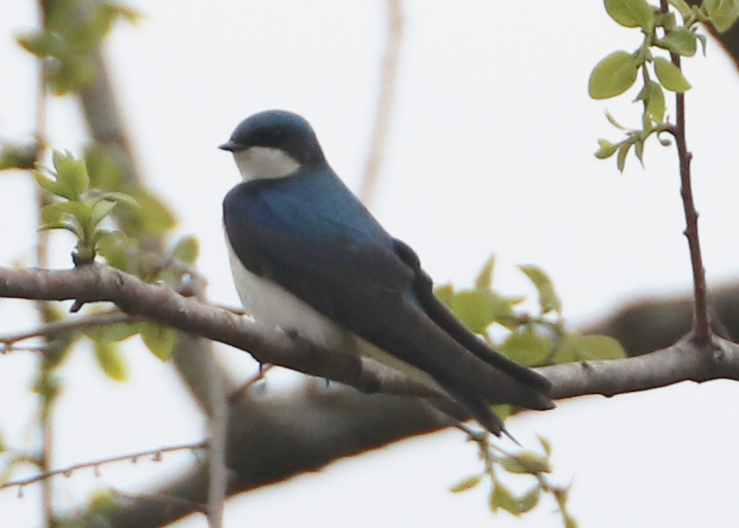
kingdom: Animalia
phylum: Chordata
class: Aves
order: Passeriformes
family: Hirundinidae
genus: Tachycineta
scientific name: Tachycineta bicolor
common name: Tree swallow
